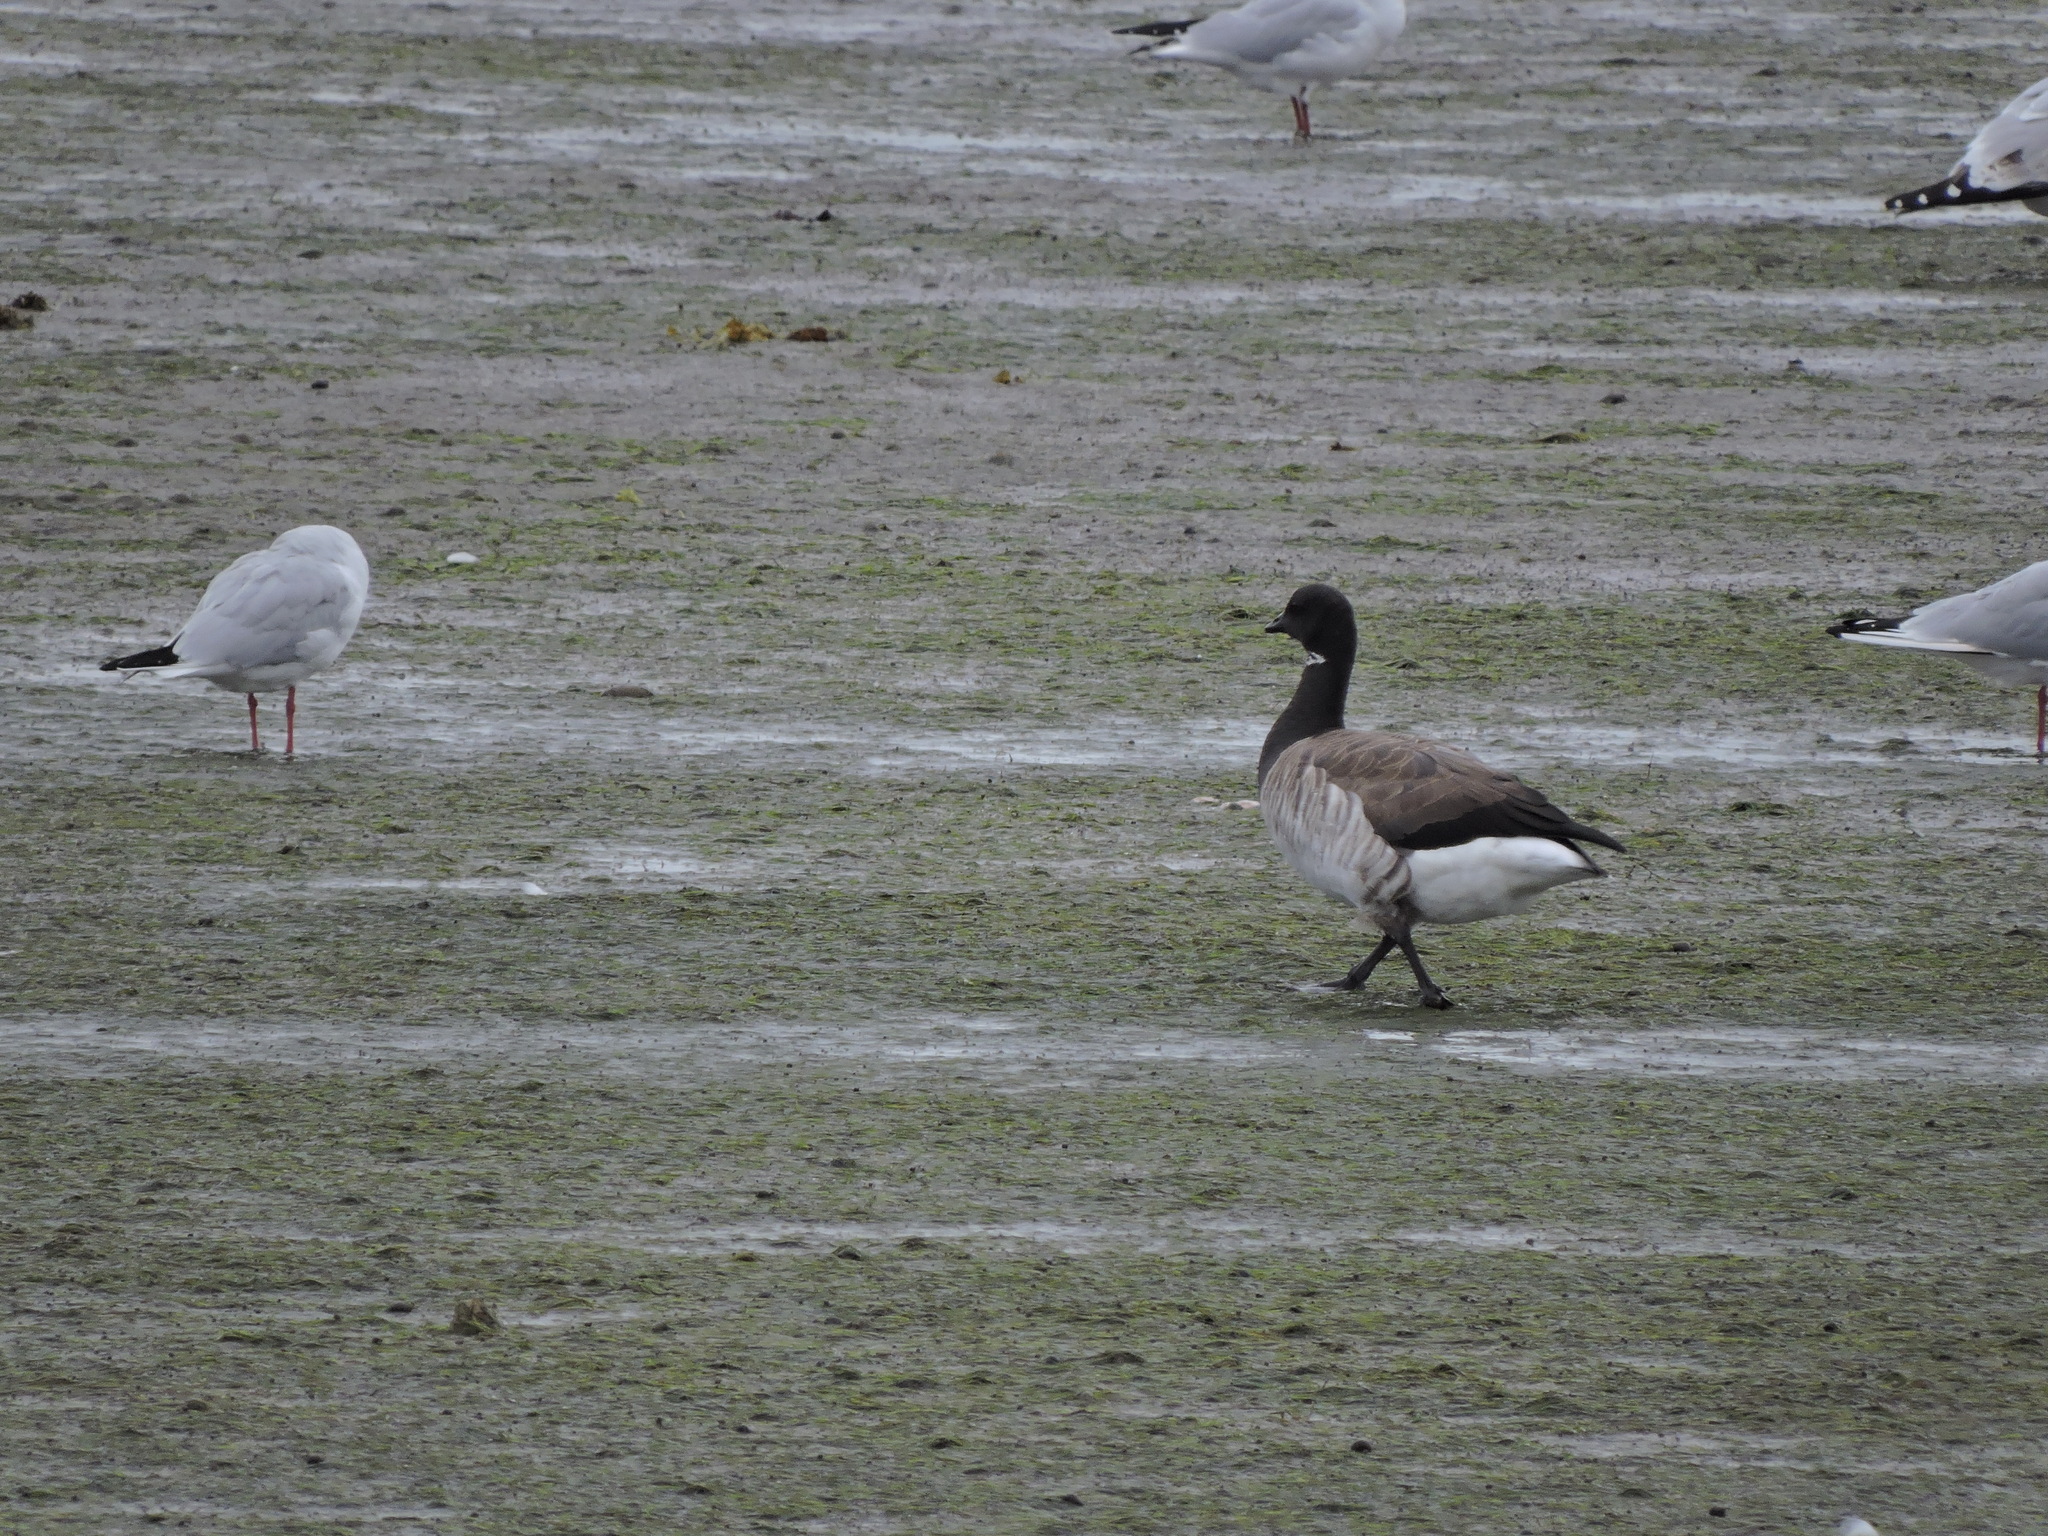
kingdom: Animalia
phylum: Chordata
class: Aves
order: Anseriformes
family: Anatidae
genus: Branta
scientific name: Branta bernicla
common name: Brant goose
